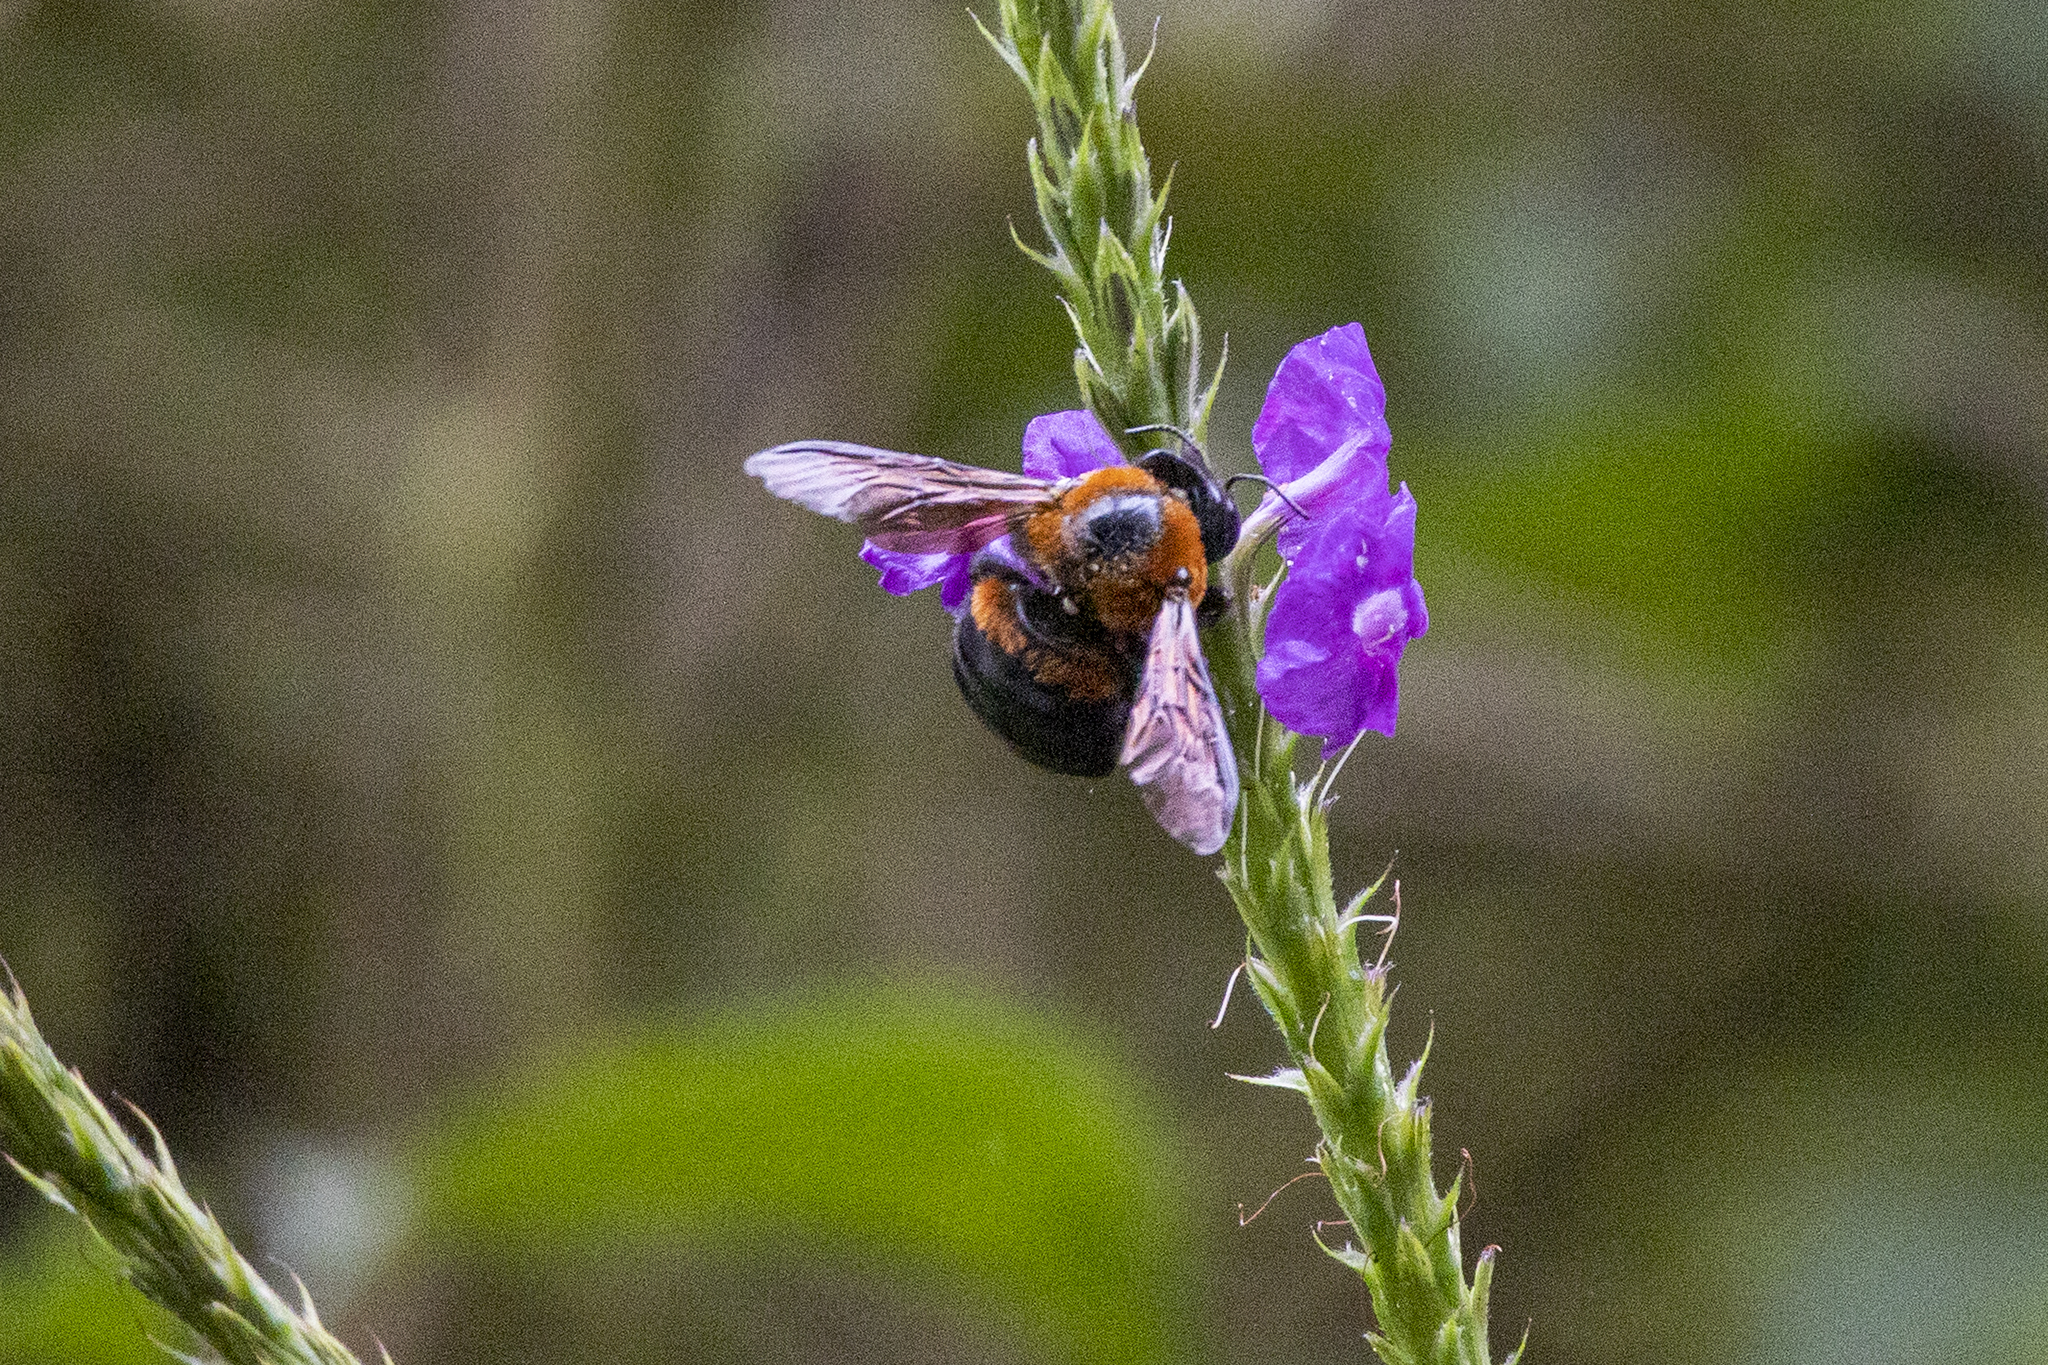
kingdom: Animalia
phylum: Arthropoda
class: Insecta
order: Hymenoptera
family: Apidae
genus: Xylocopa
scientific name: Xylocopa similis
